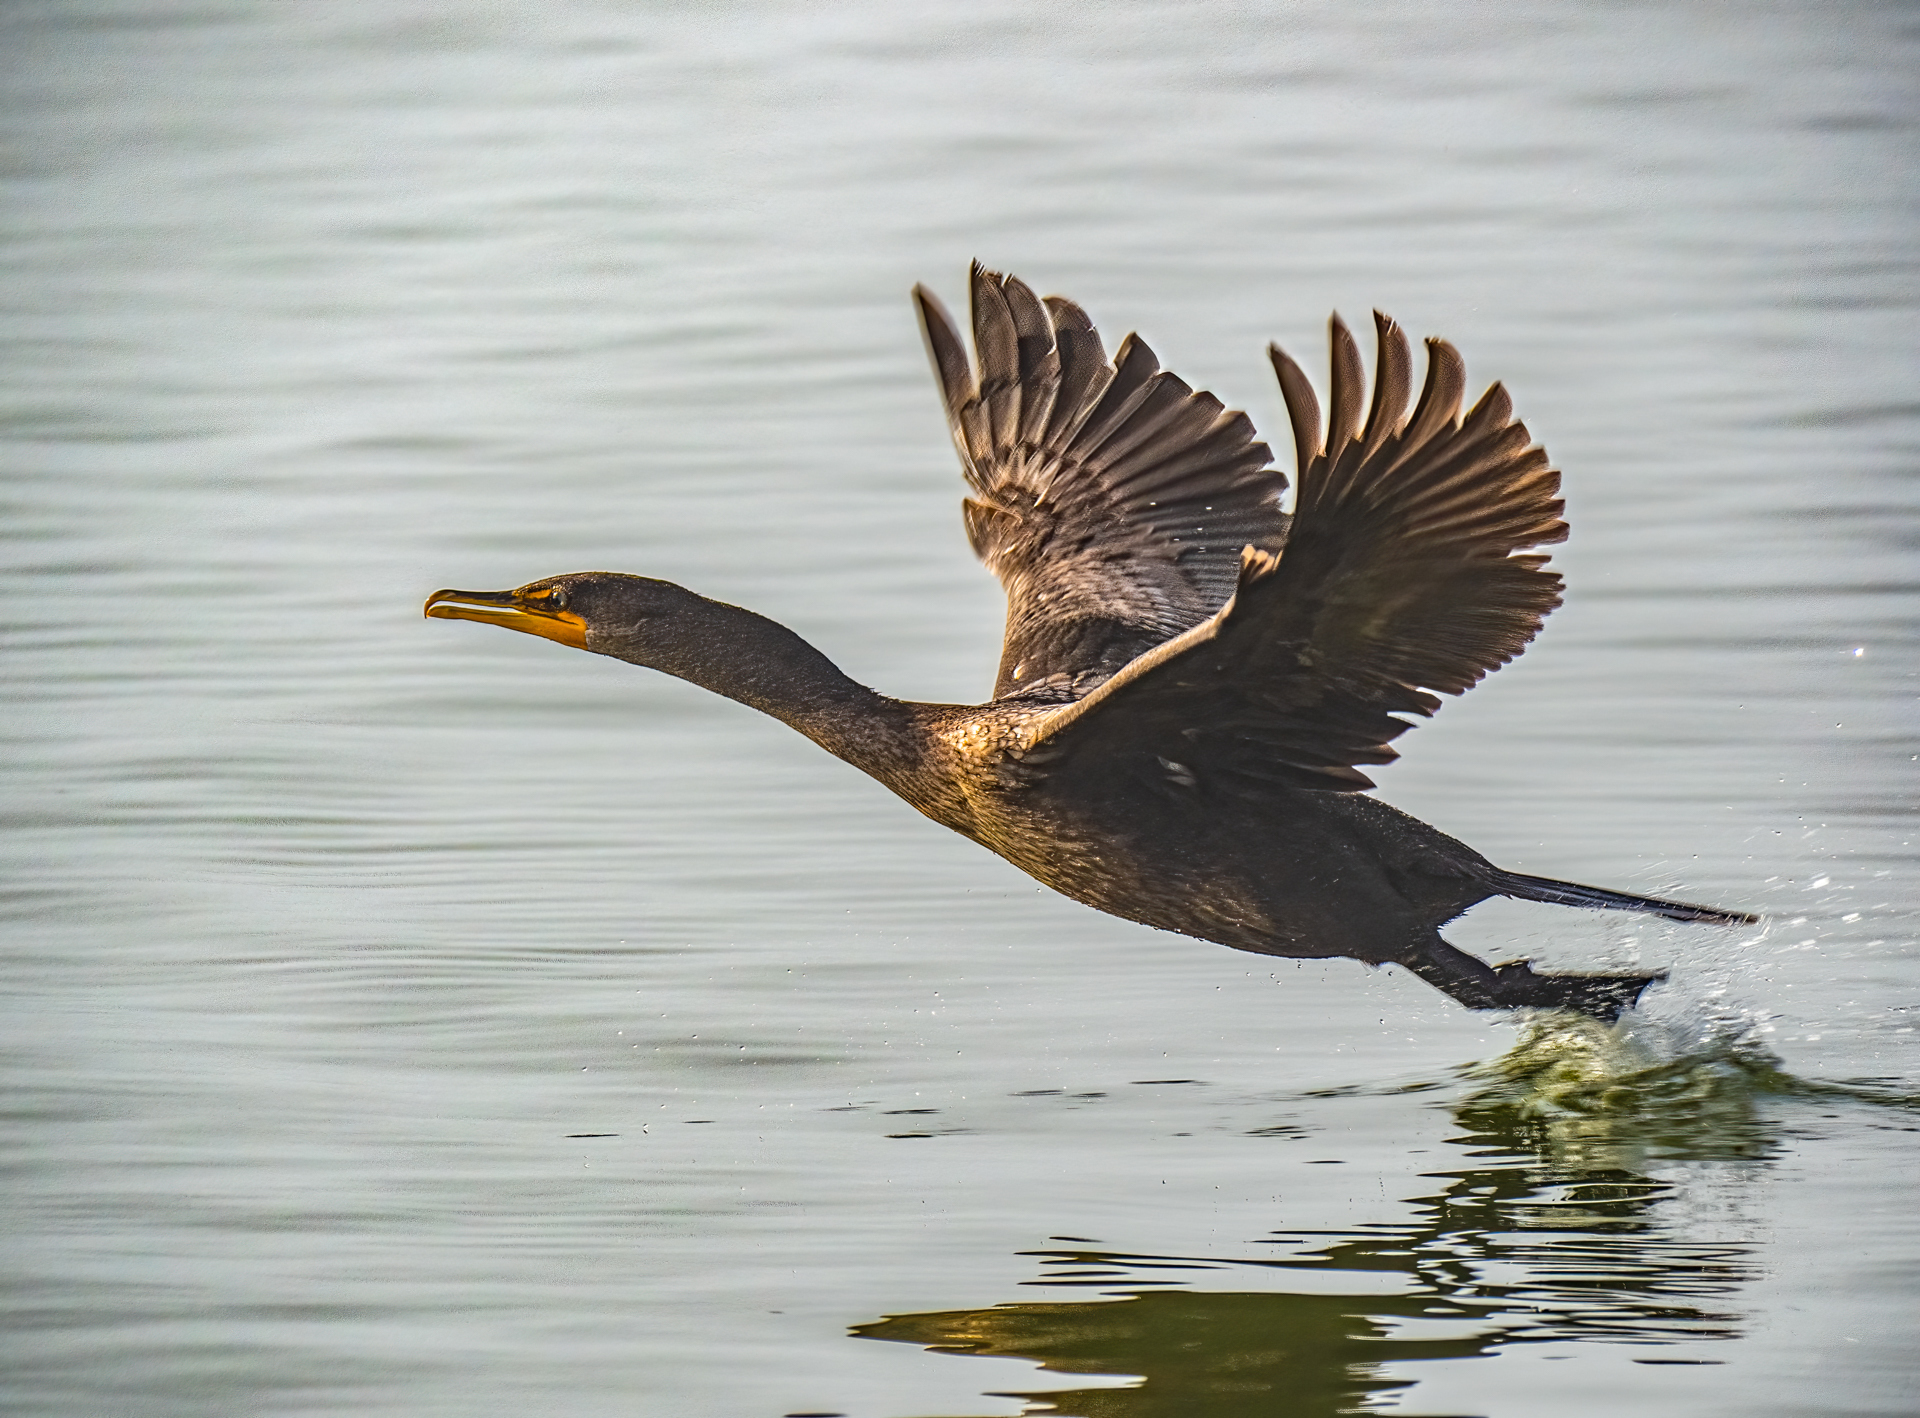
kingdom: Animalia
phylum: Chordata
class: Aves
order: Suliformes
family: Phalacrocoracidae
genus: Phalacrocorax
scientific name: Phalacrocorax auritus
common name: Double-crested cormorant
